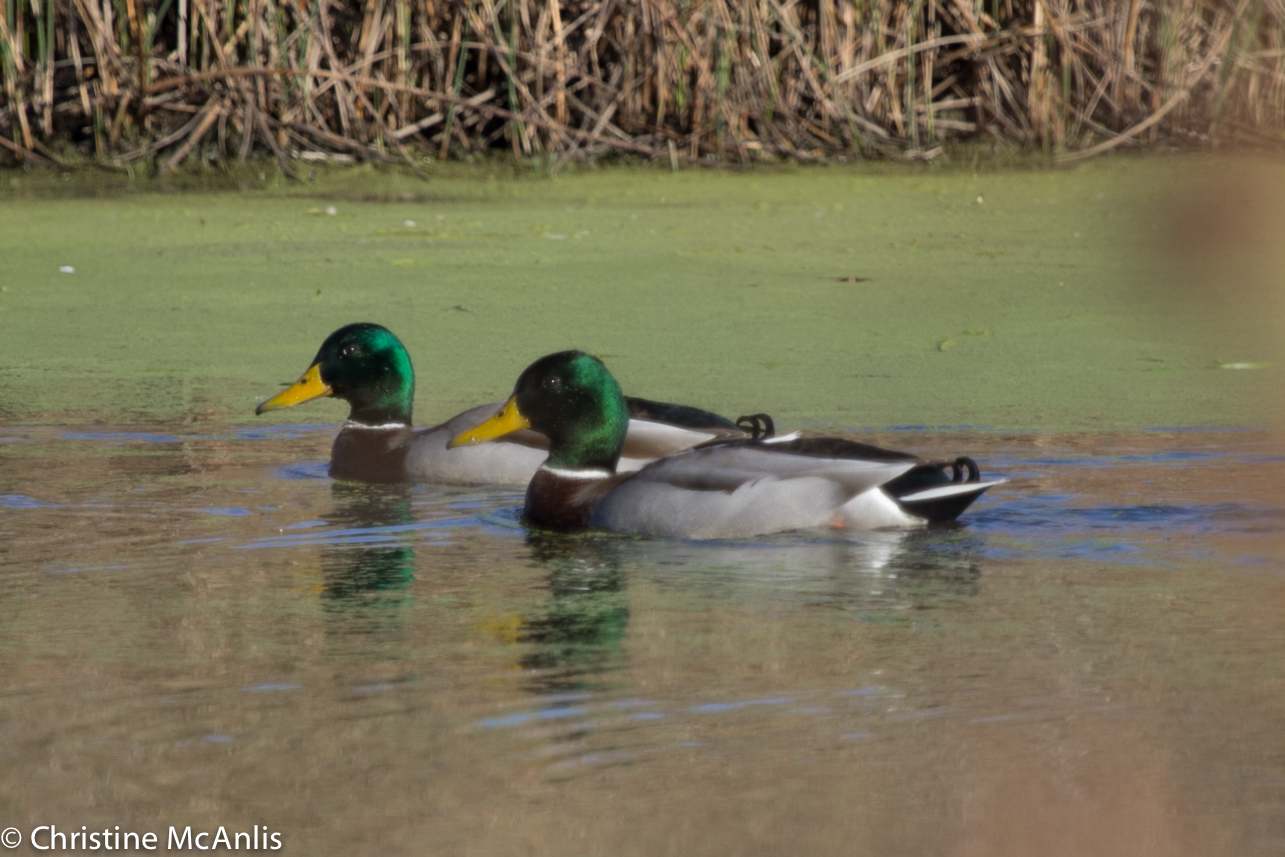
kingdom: Animalia
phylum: Chordata
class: Aves
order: Anseriformes
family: Anatidae
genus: Anas
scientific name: Anas platyrhynchos
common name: Mallard
